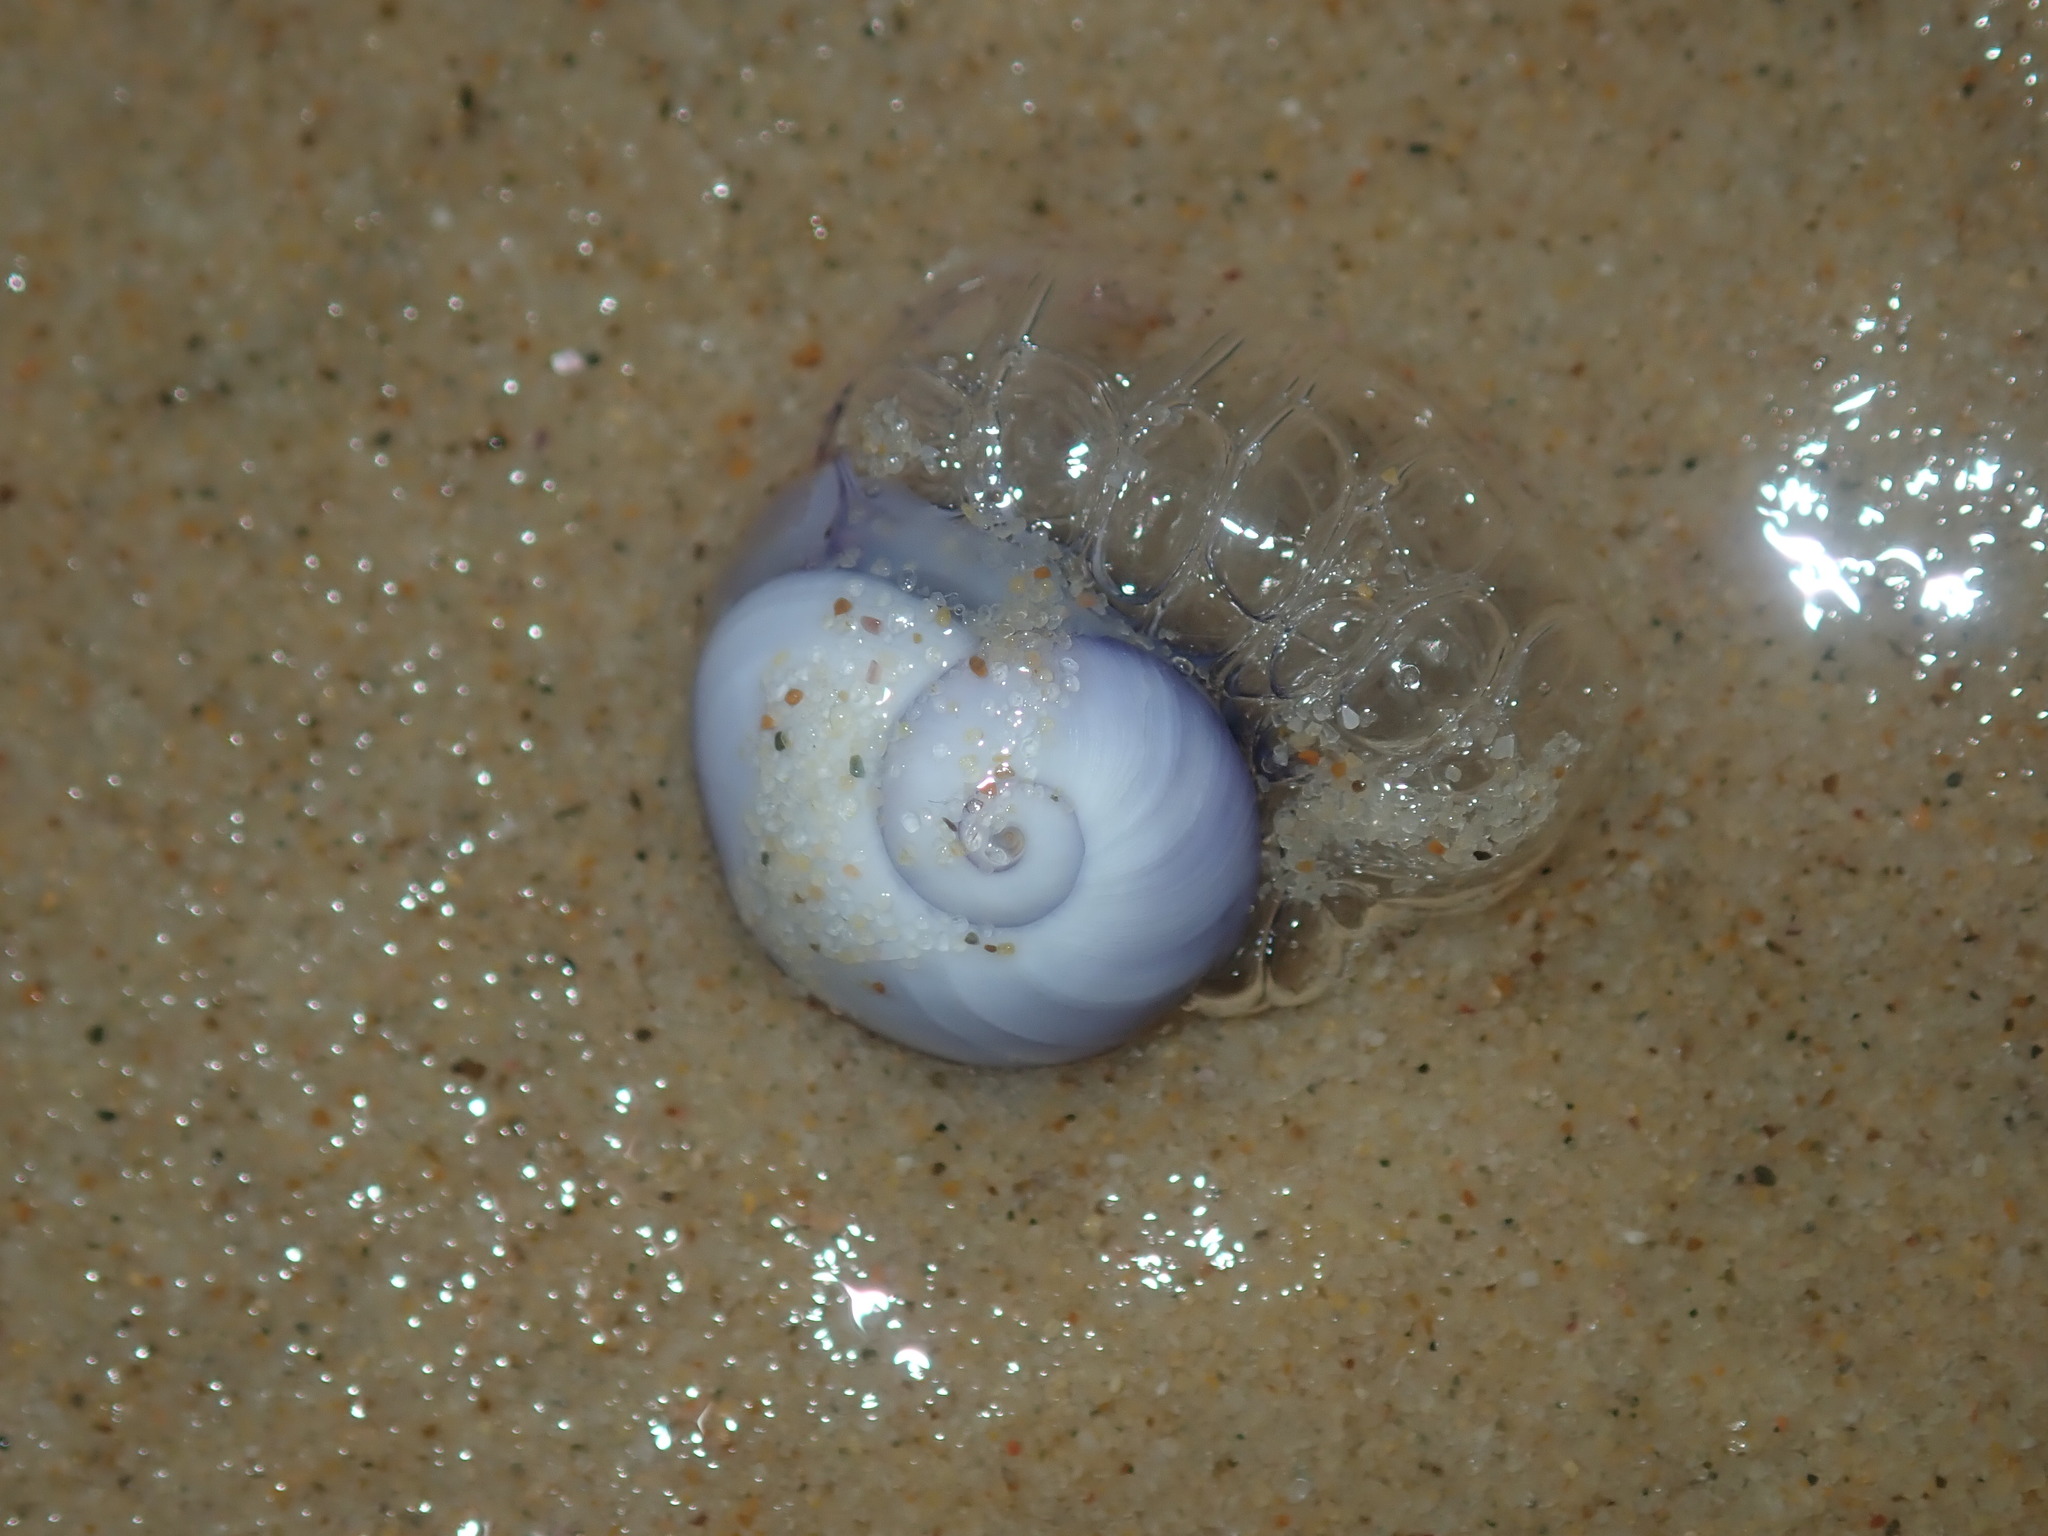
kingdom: Animalia
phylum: Mollusca
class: Gastropoda
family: Epitoniidae
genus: Janthina
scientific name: Janthina janthina
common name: Common janthina
